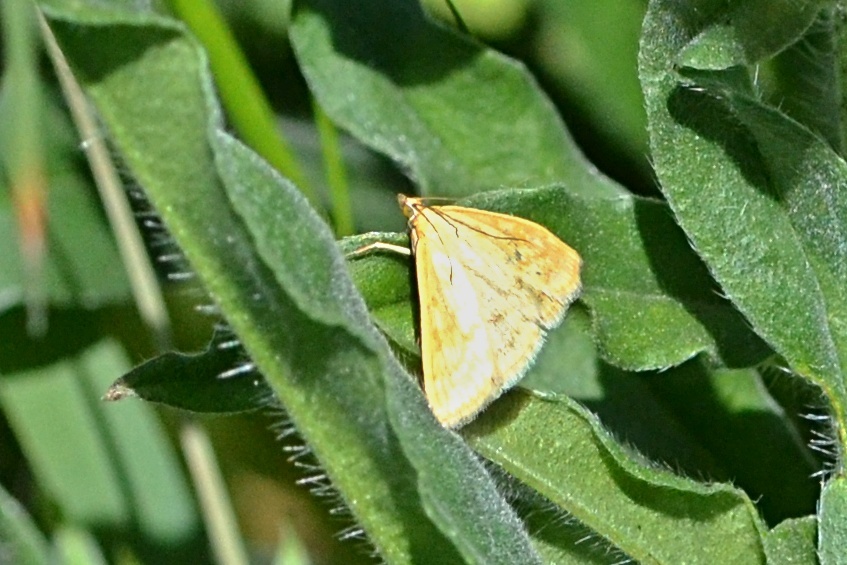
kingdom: Animalia
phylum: Arthropoda
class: Insecta
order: Lepidoptera
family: Crambidae
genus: Sitochroa
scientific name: Sitochroa verticalis
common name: Lesser pearl
